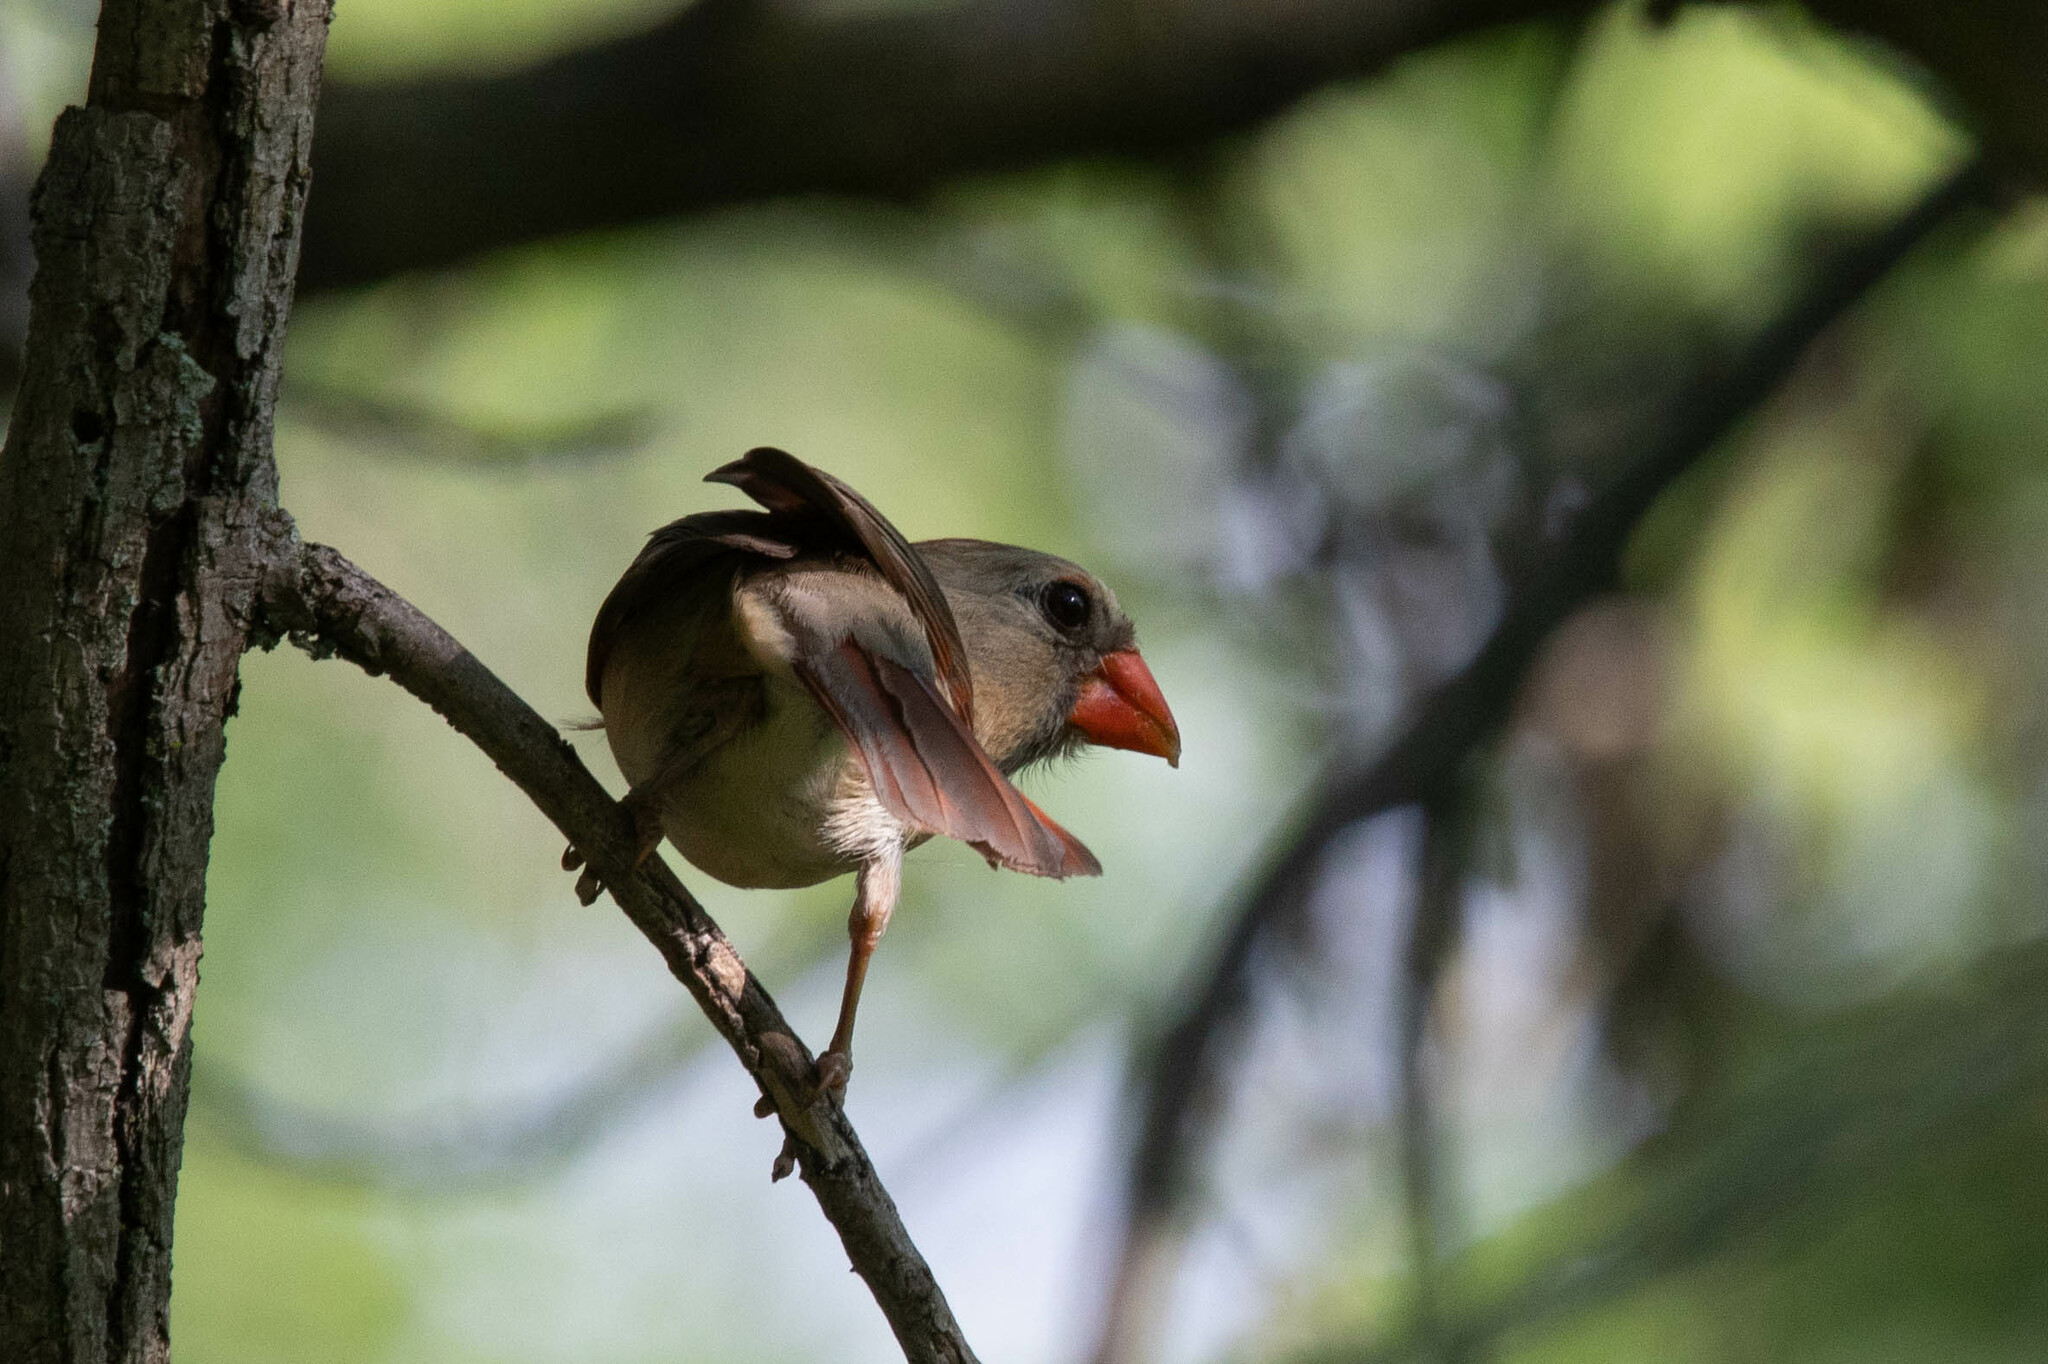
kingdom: Animalia
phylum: Chordata
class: Aves
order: Passeriformes
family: Cardinalidae
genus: Cardinalis
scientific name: Cardinalis cardinalis
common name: Northern cardinal
